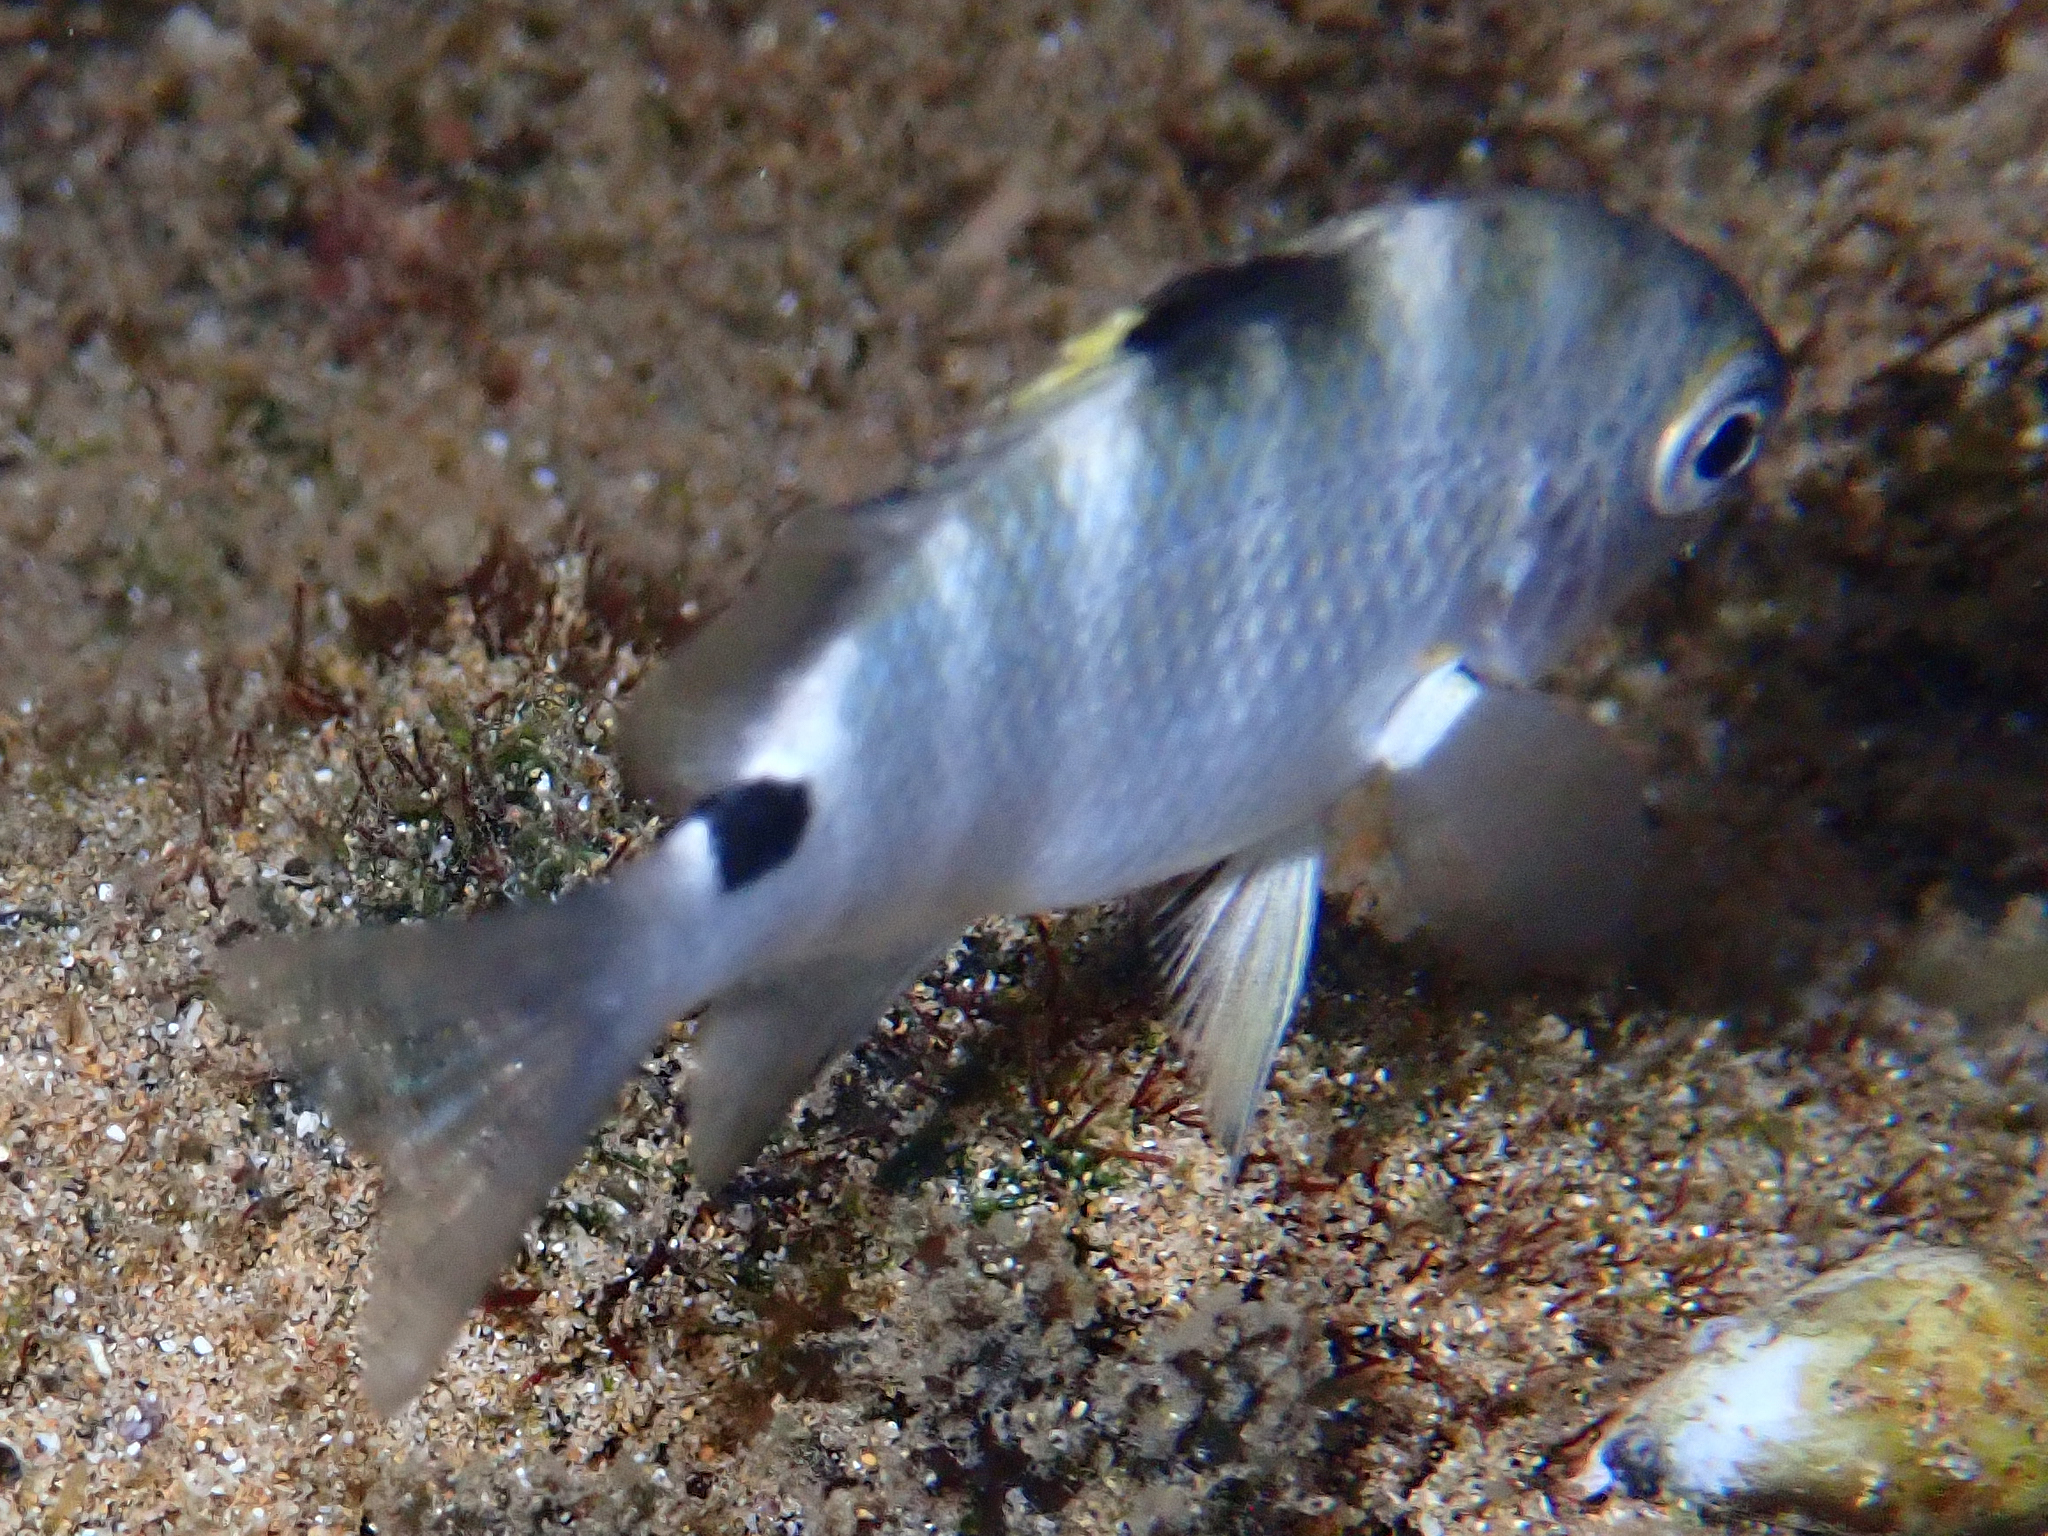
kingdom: Animalia
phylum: Chordata
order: Perciformes
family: Pomacentridae
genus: Abudefduf
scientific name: Abudefduf sordidus
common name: Blackspot sergeant
